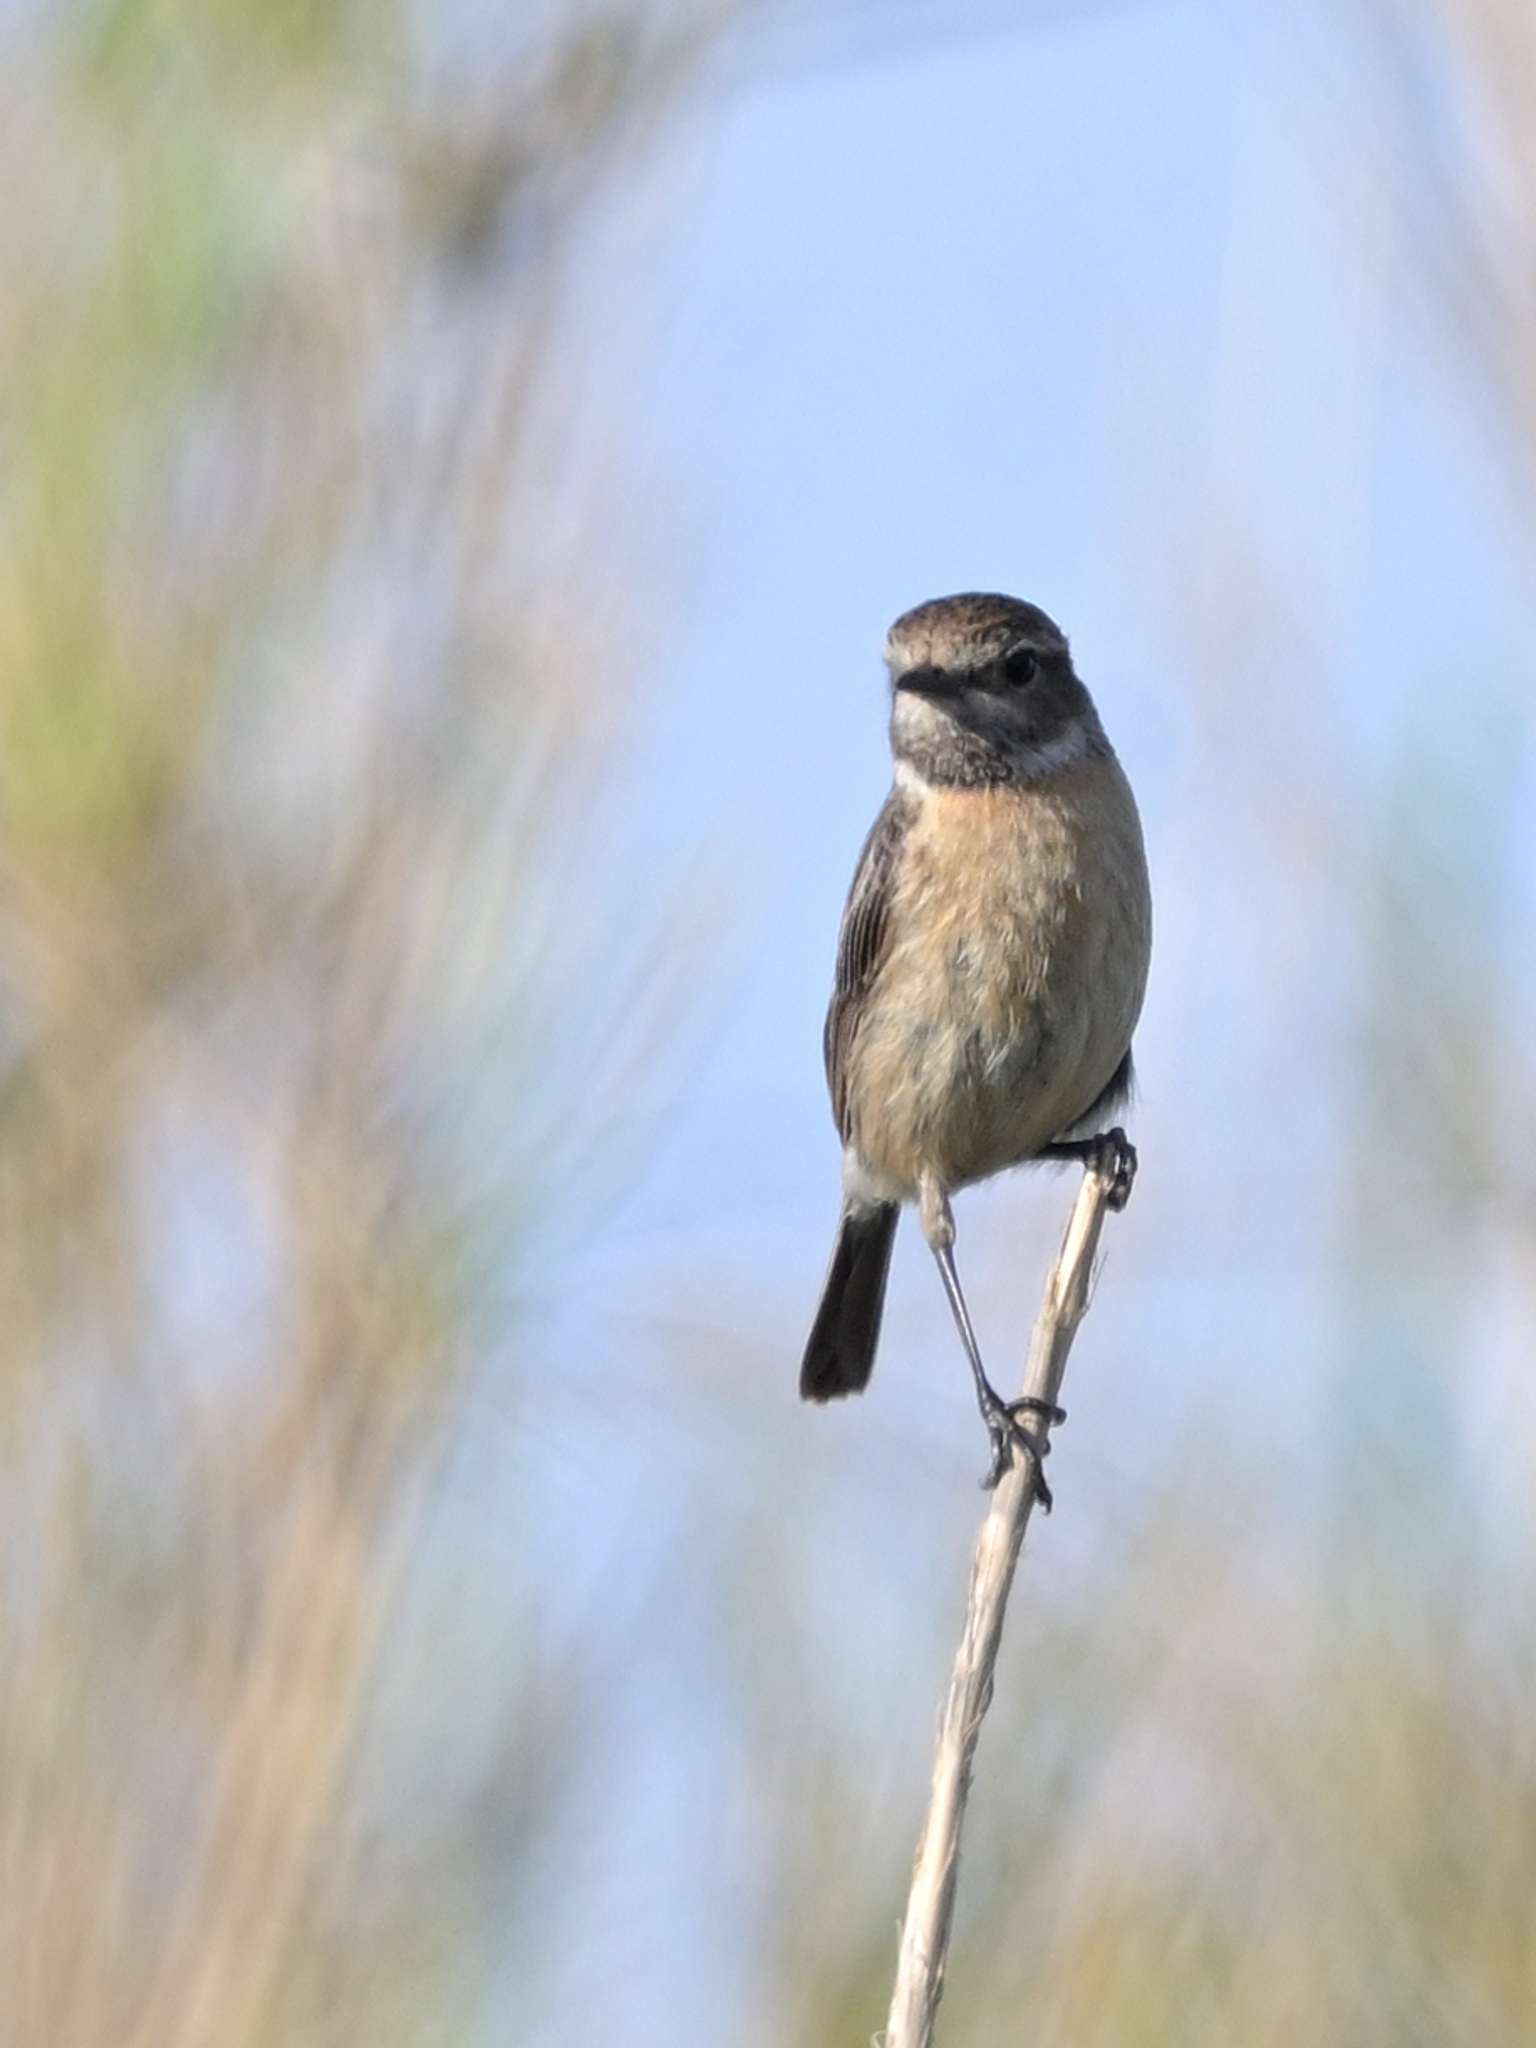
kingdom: Animalia
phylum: Chordata
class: Aves
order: Passeriformes
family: Muscicapidae
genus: Saxicola
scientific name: Saxicola rubicola
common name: European stonechat
